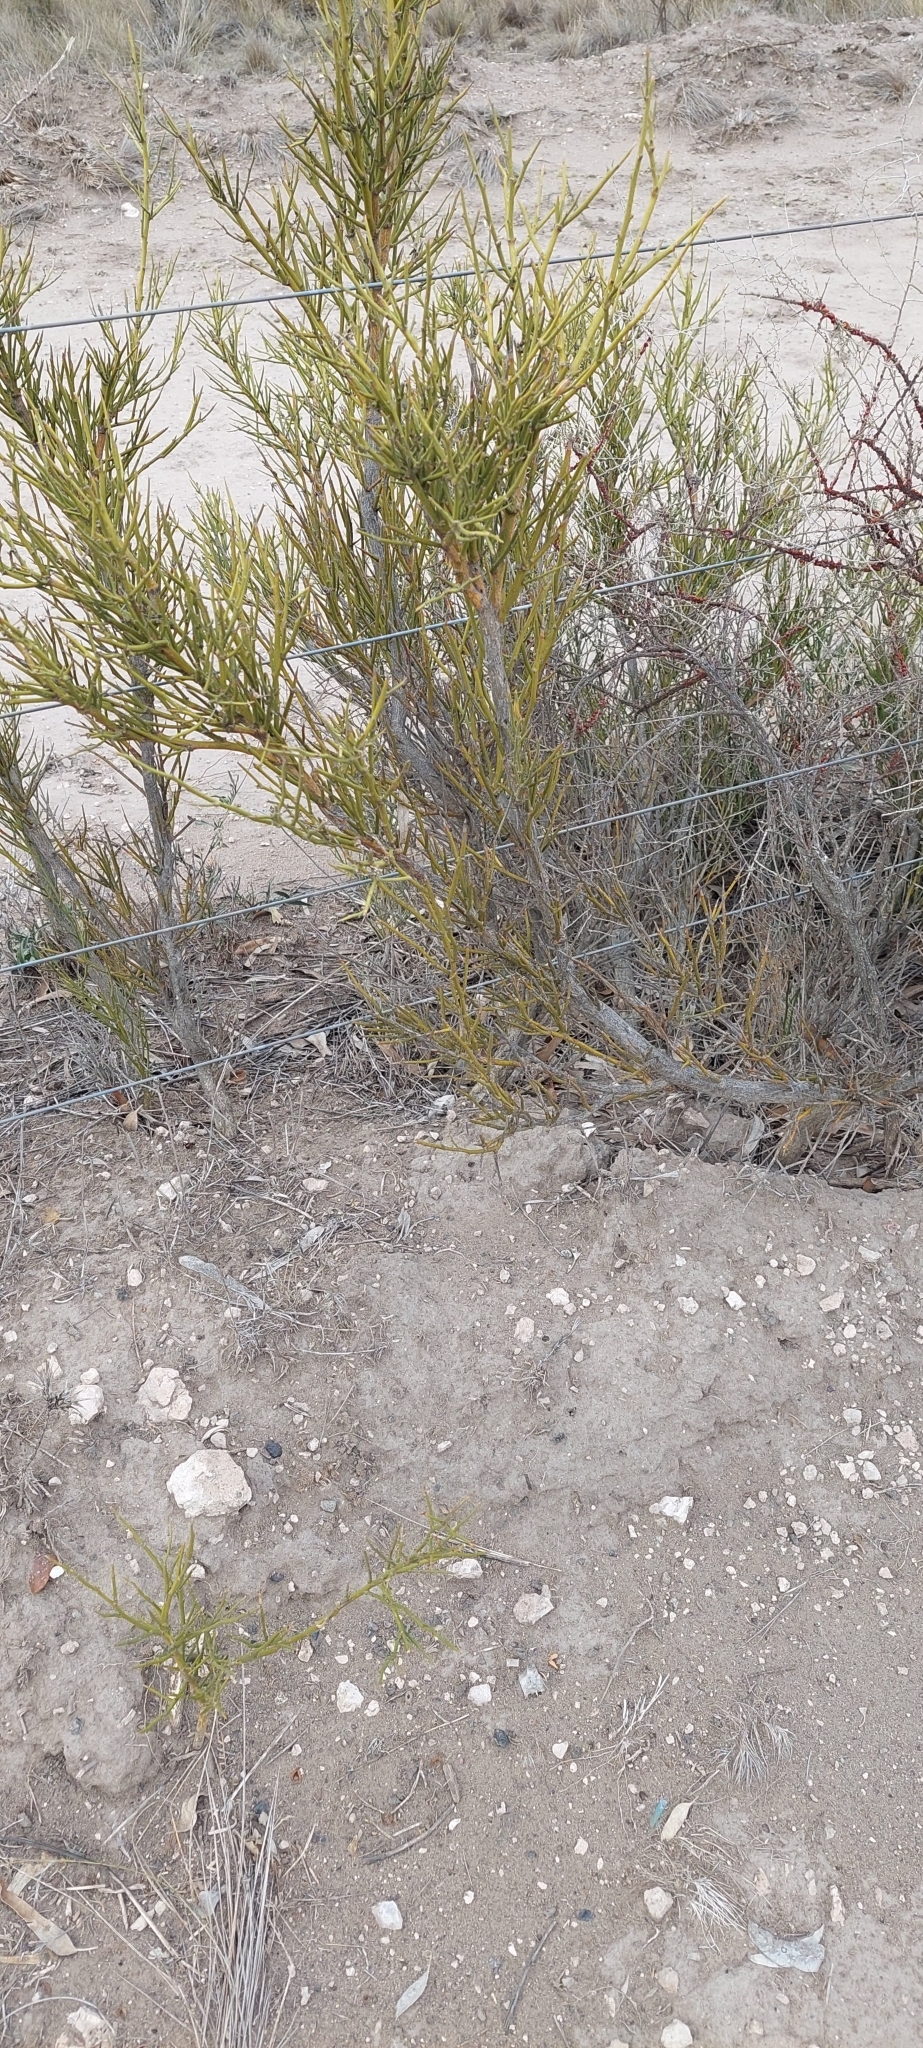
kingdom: Plantae
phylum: Tracheophyta
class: Magnoliopsida
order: Fabales
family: Fabaceae
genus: Prosopidastrum
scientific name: Prosopidastrum angusticarpum
